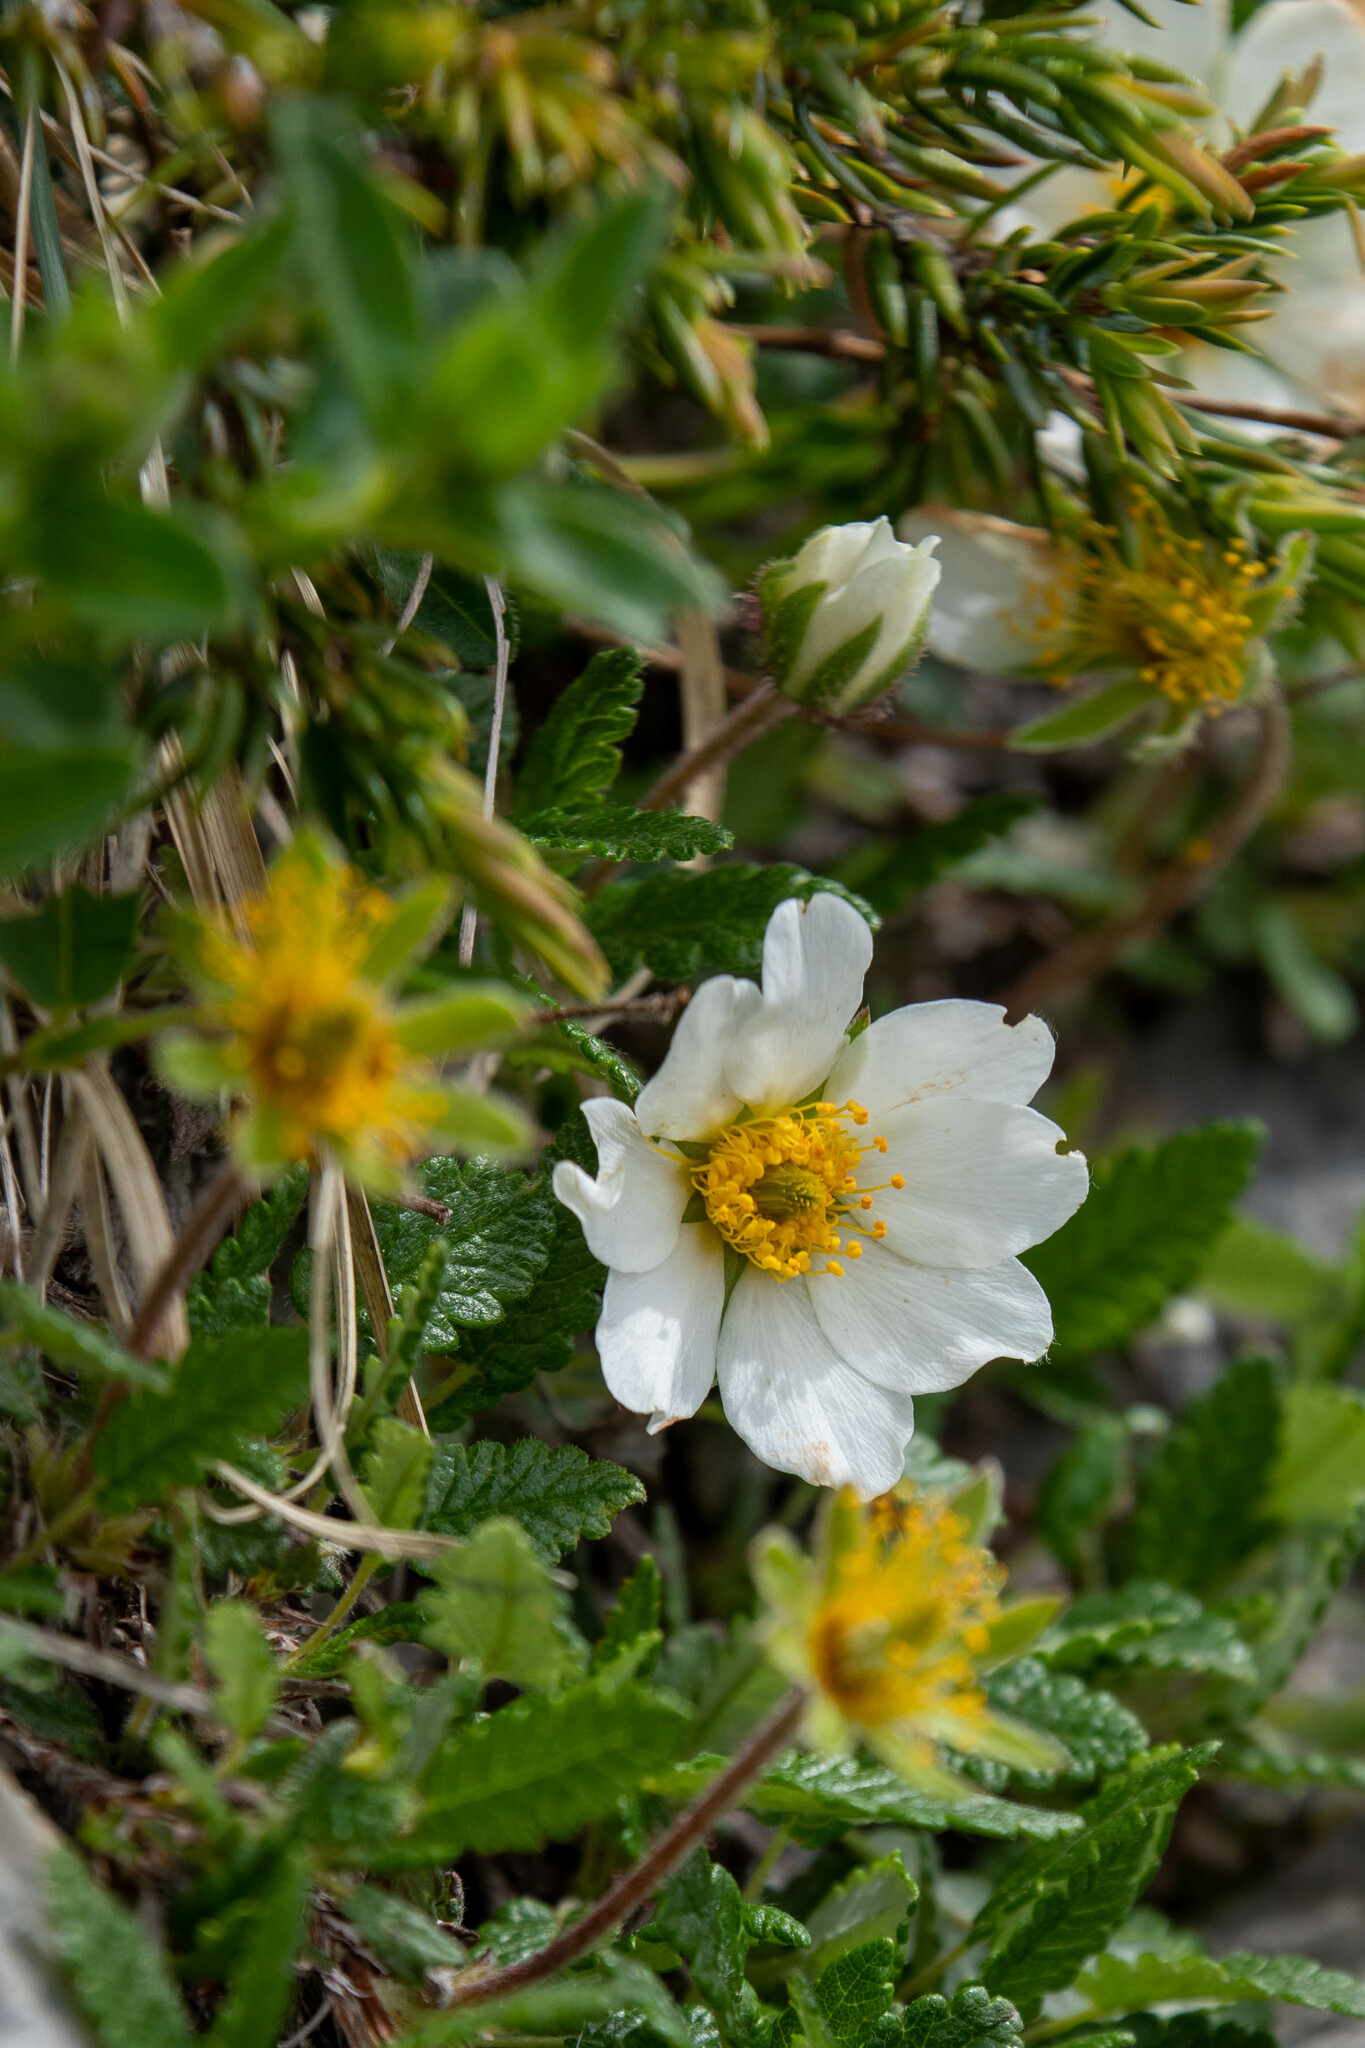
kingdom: Plantae
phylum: Tracheophyta
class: Magnoliopsida
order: Rosales
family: Rosaceae
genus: Dryas
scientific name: Dryas octopetala
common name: Eight-petal mountain-avens
